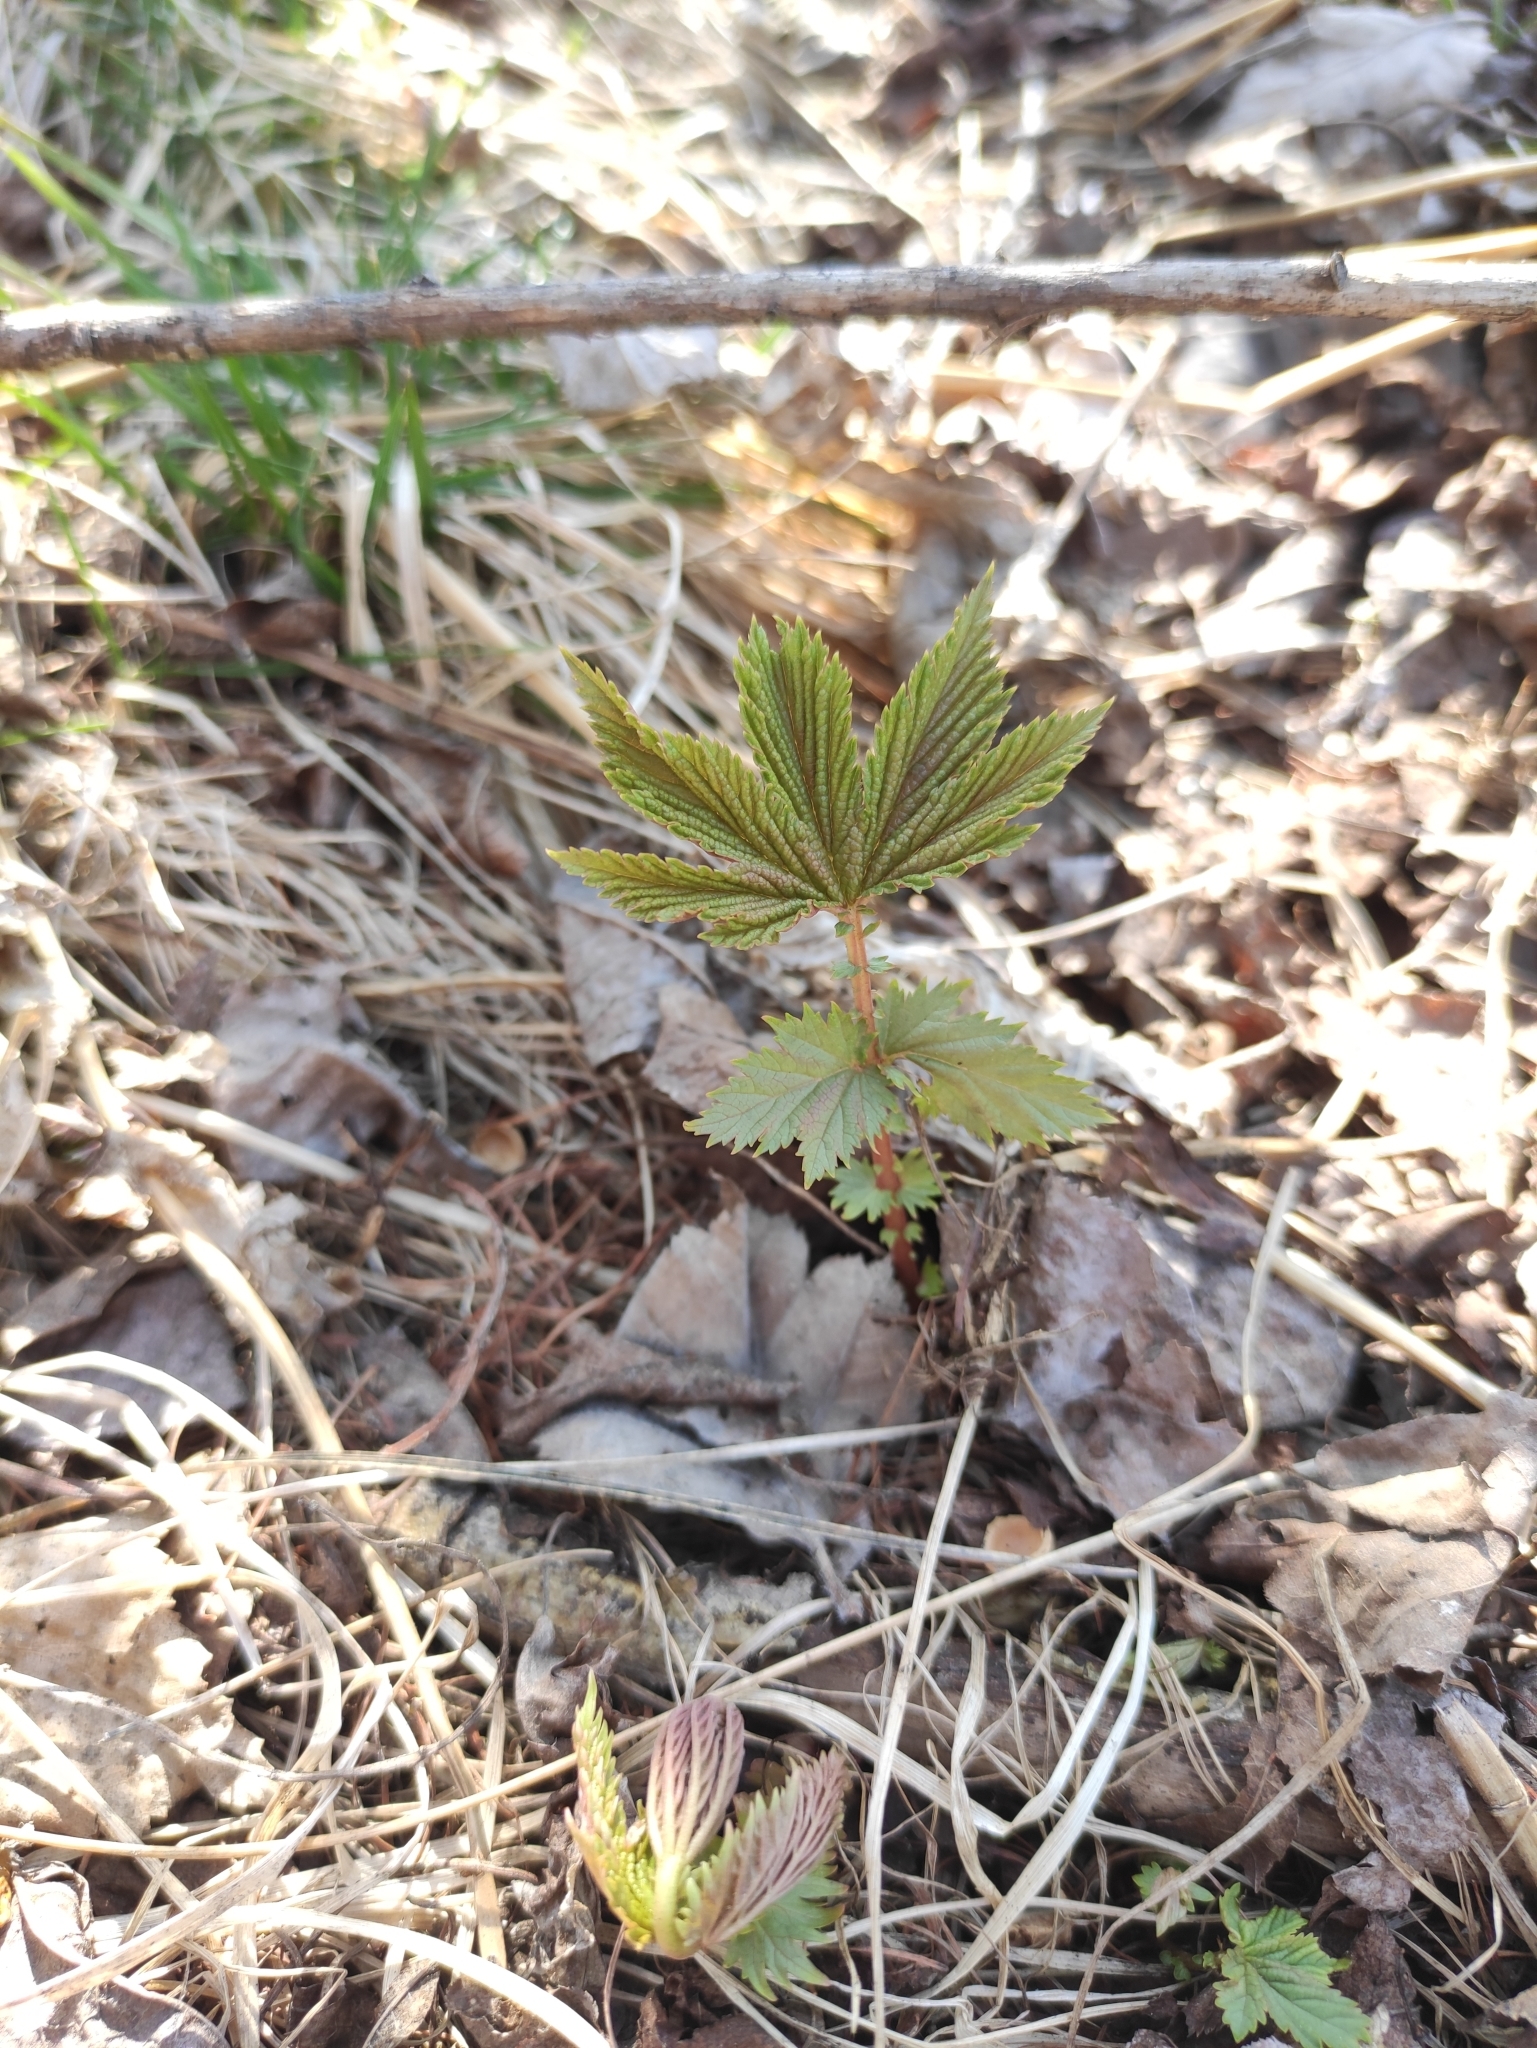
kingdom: Plantae
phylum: Tracheophyta
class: Magnoliopsida
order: Rosales
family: Rosaceae
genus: Filipendula
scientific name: Filipendula digitata
